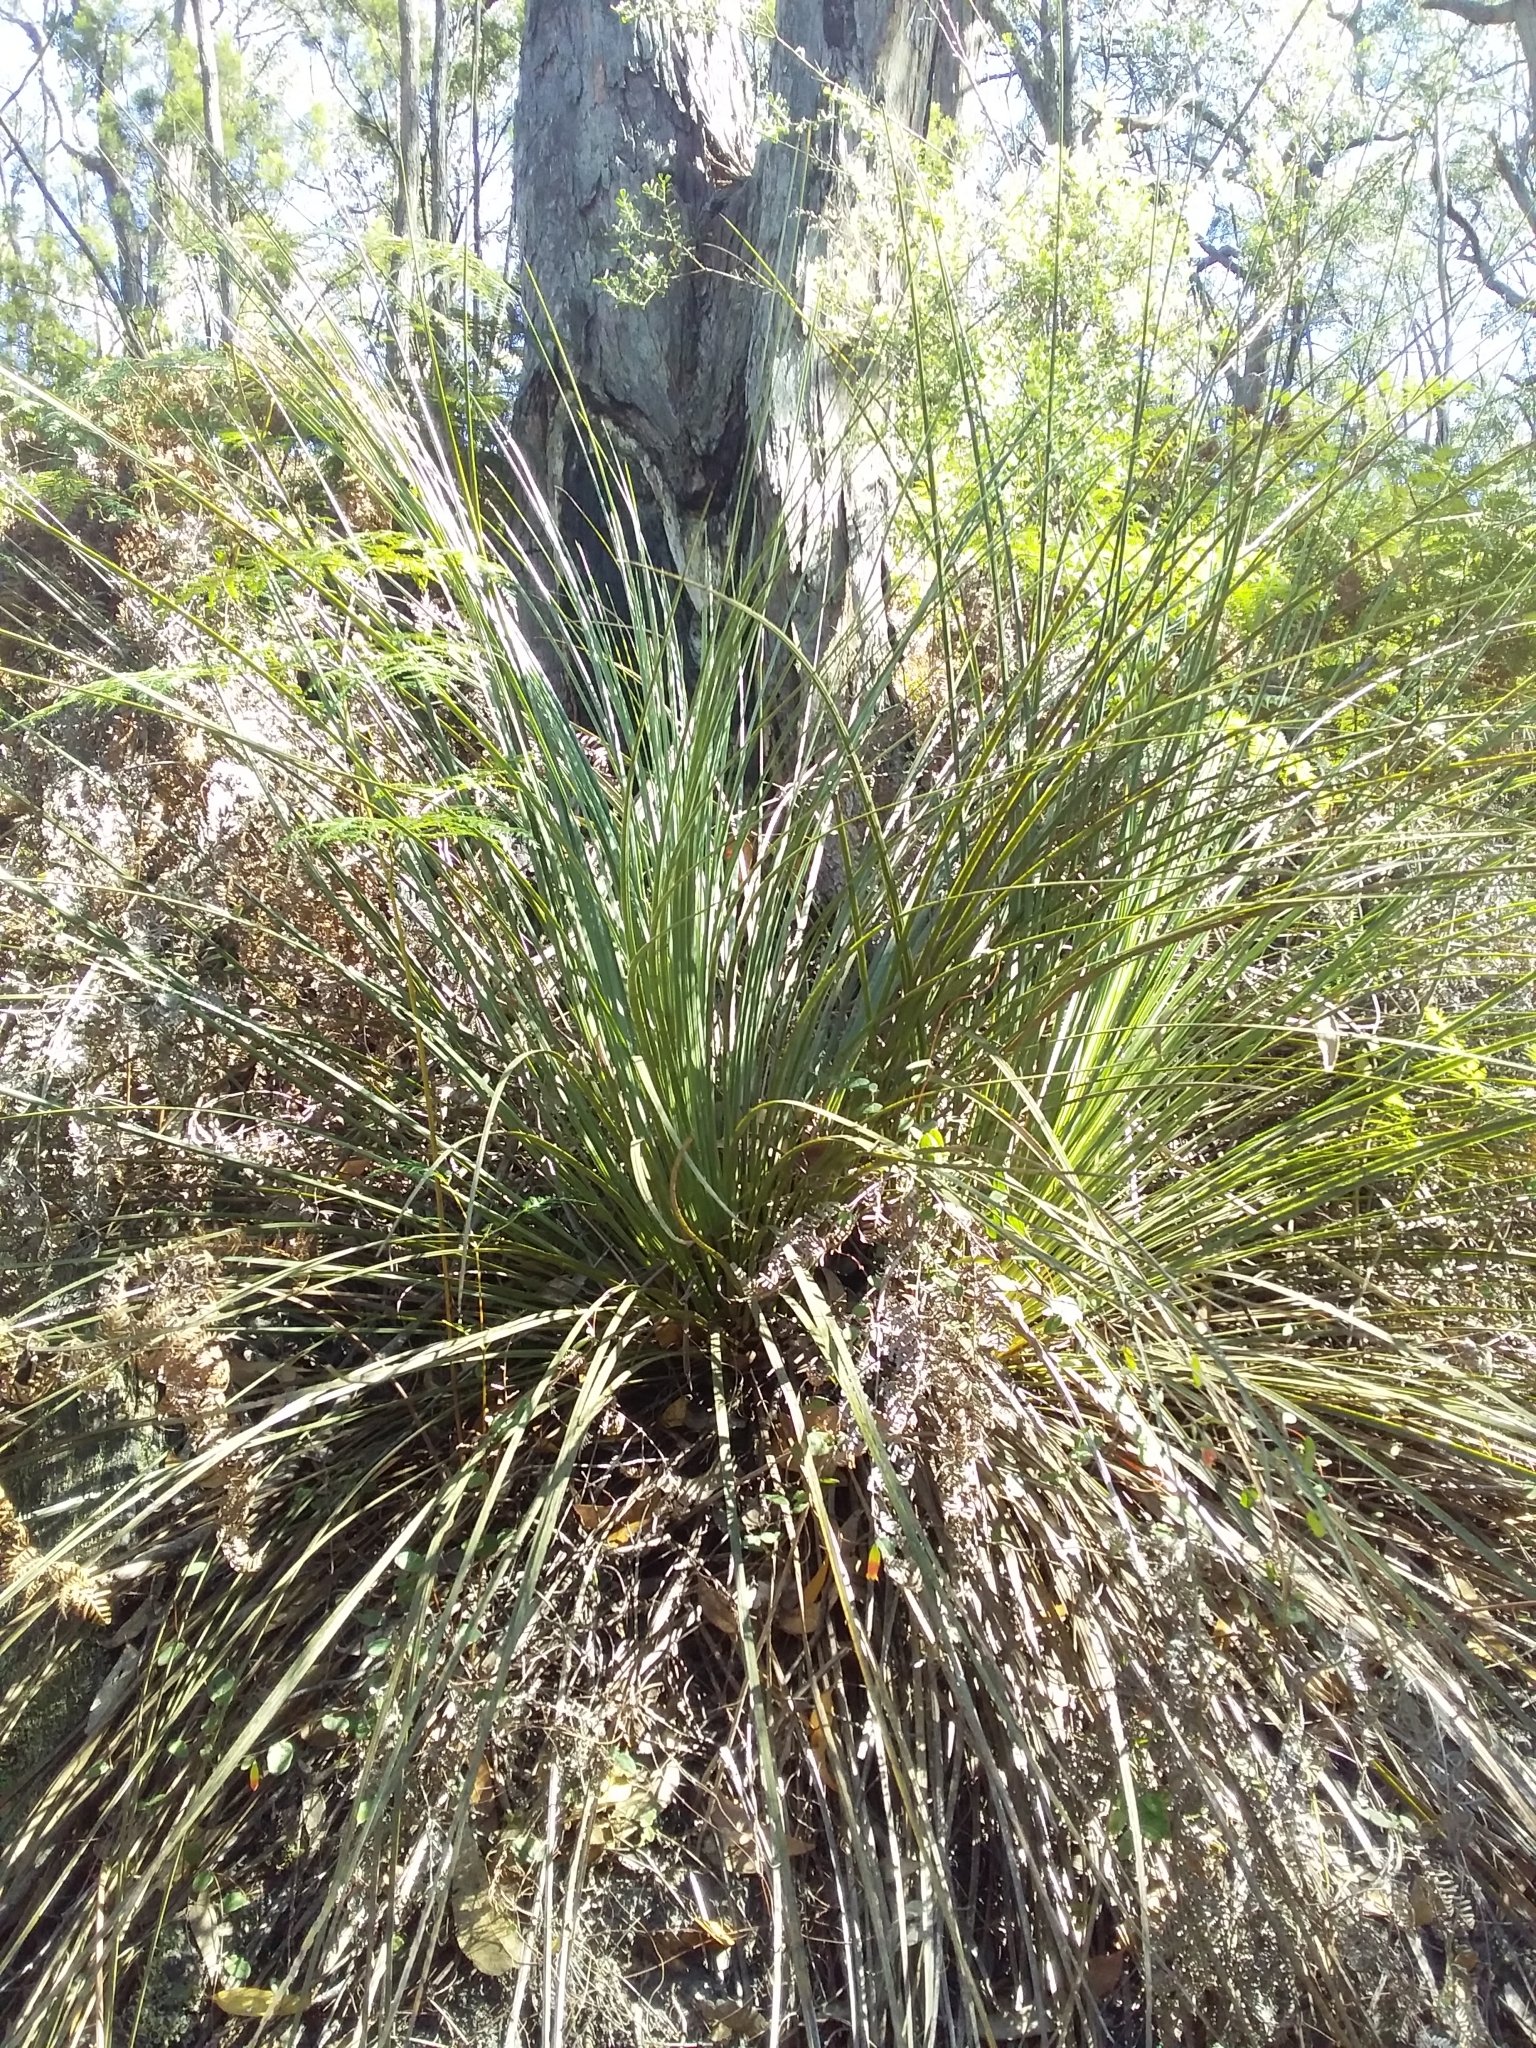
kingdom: Plantae
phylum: Tracheophyta
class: Liliopsida
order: Asparagales
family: Asphodelaceae
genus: Xanthorrhoea
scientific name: Xanthorrhoea semiplana
